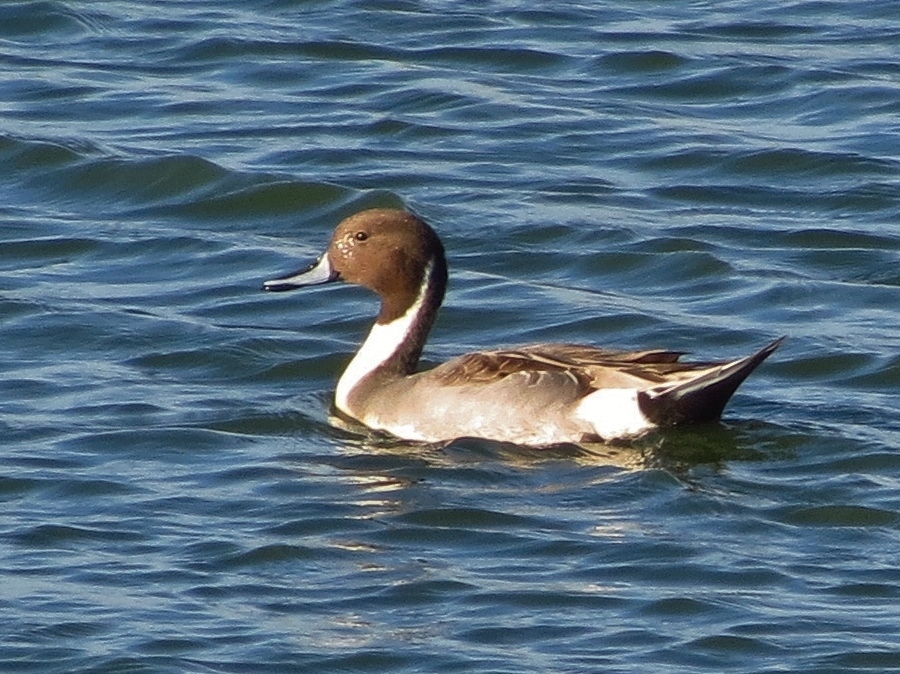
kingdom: Animalia
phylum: Chordata
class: Aves
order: Anseriformes
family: Anatidae
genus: Anas
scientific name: Anas acuta
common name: Northern pintail
